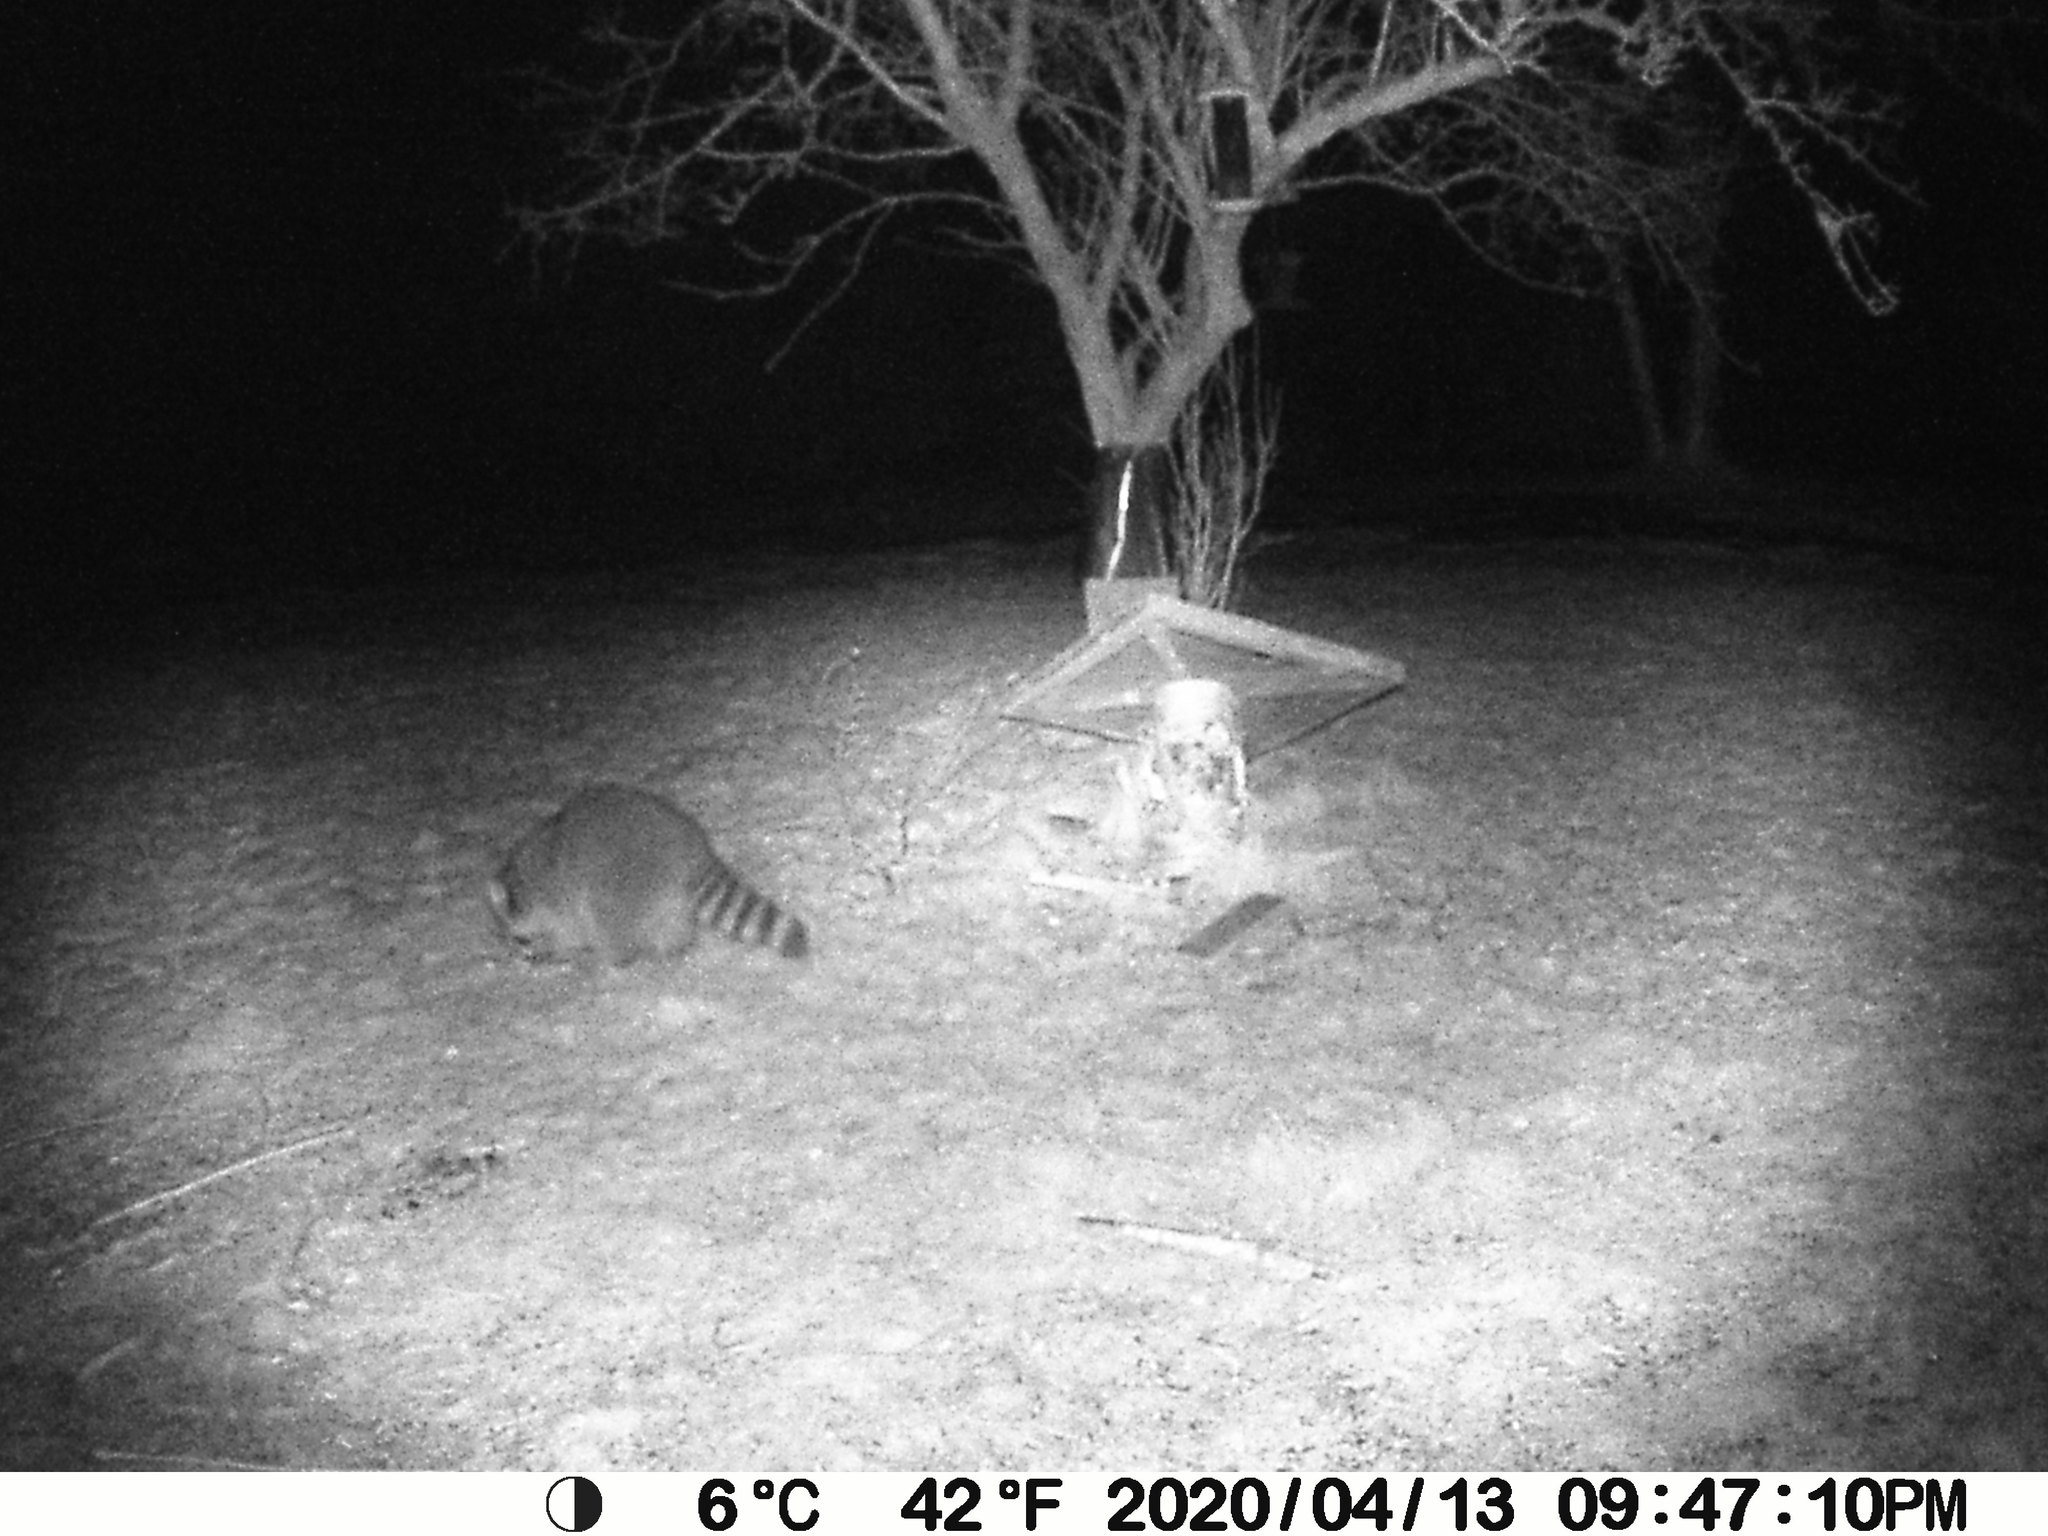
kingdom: Animalia
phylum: Chordata
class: Mammalia
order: Carnivora
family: Procyonidae
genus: Procyon
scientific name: Procyon lotor
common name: Raccoon
